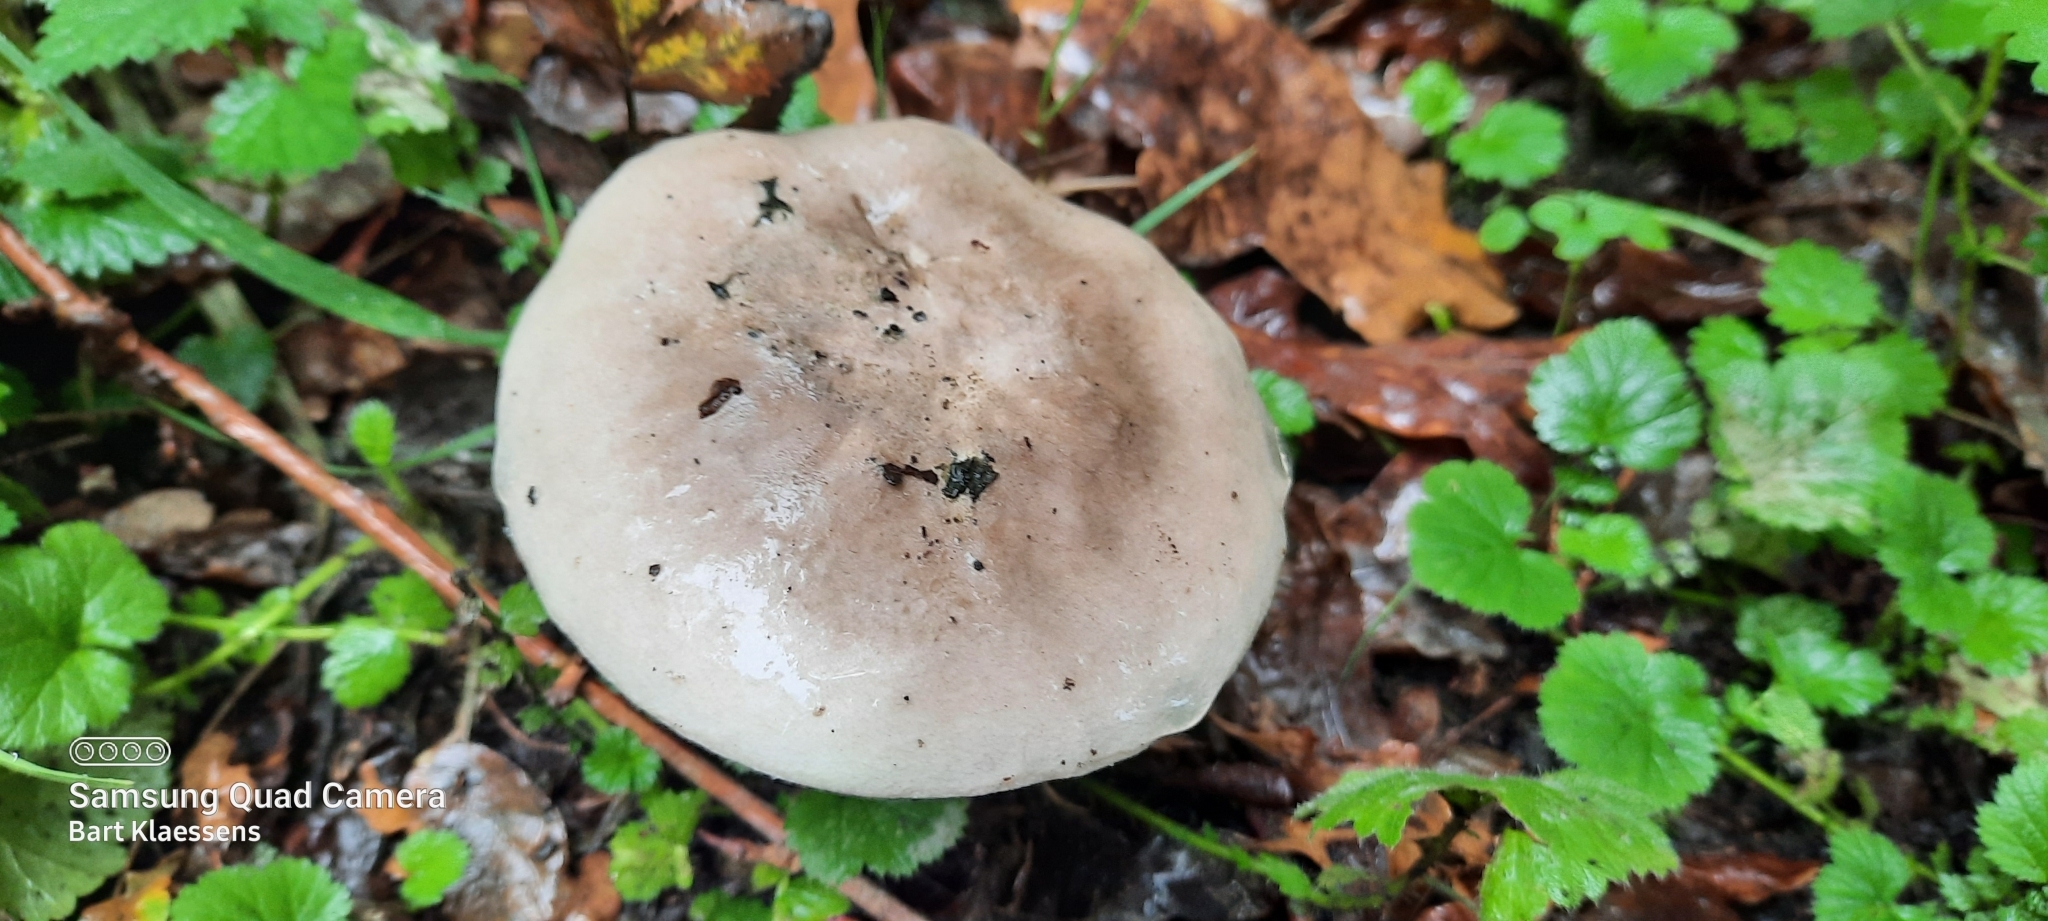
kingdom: Fungi
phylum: Basidiomycota
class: Agaricomycetes
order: Agaricales
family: Tricholomataceae
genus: Clitocybe
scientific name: Clitocybe nebularis
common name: Clouded agaric
